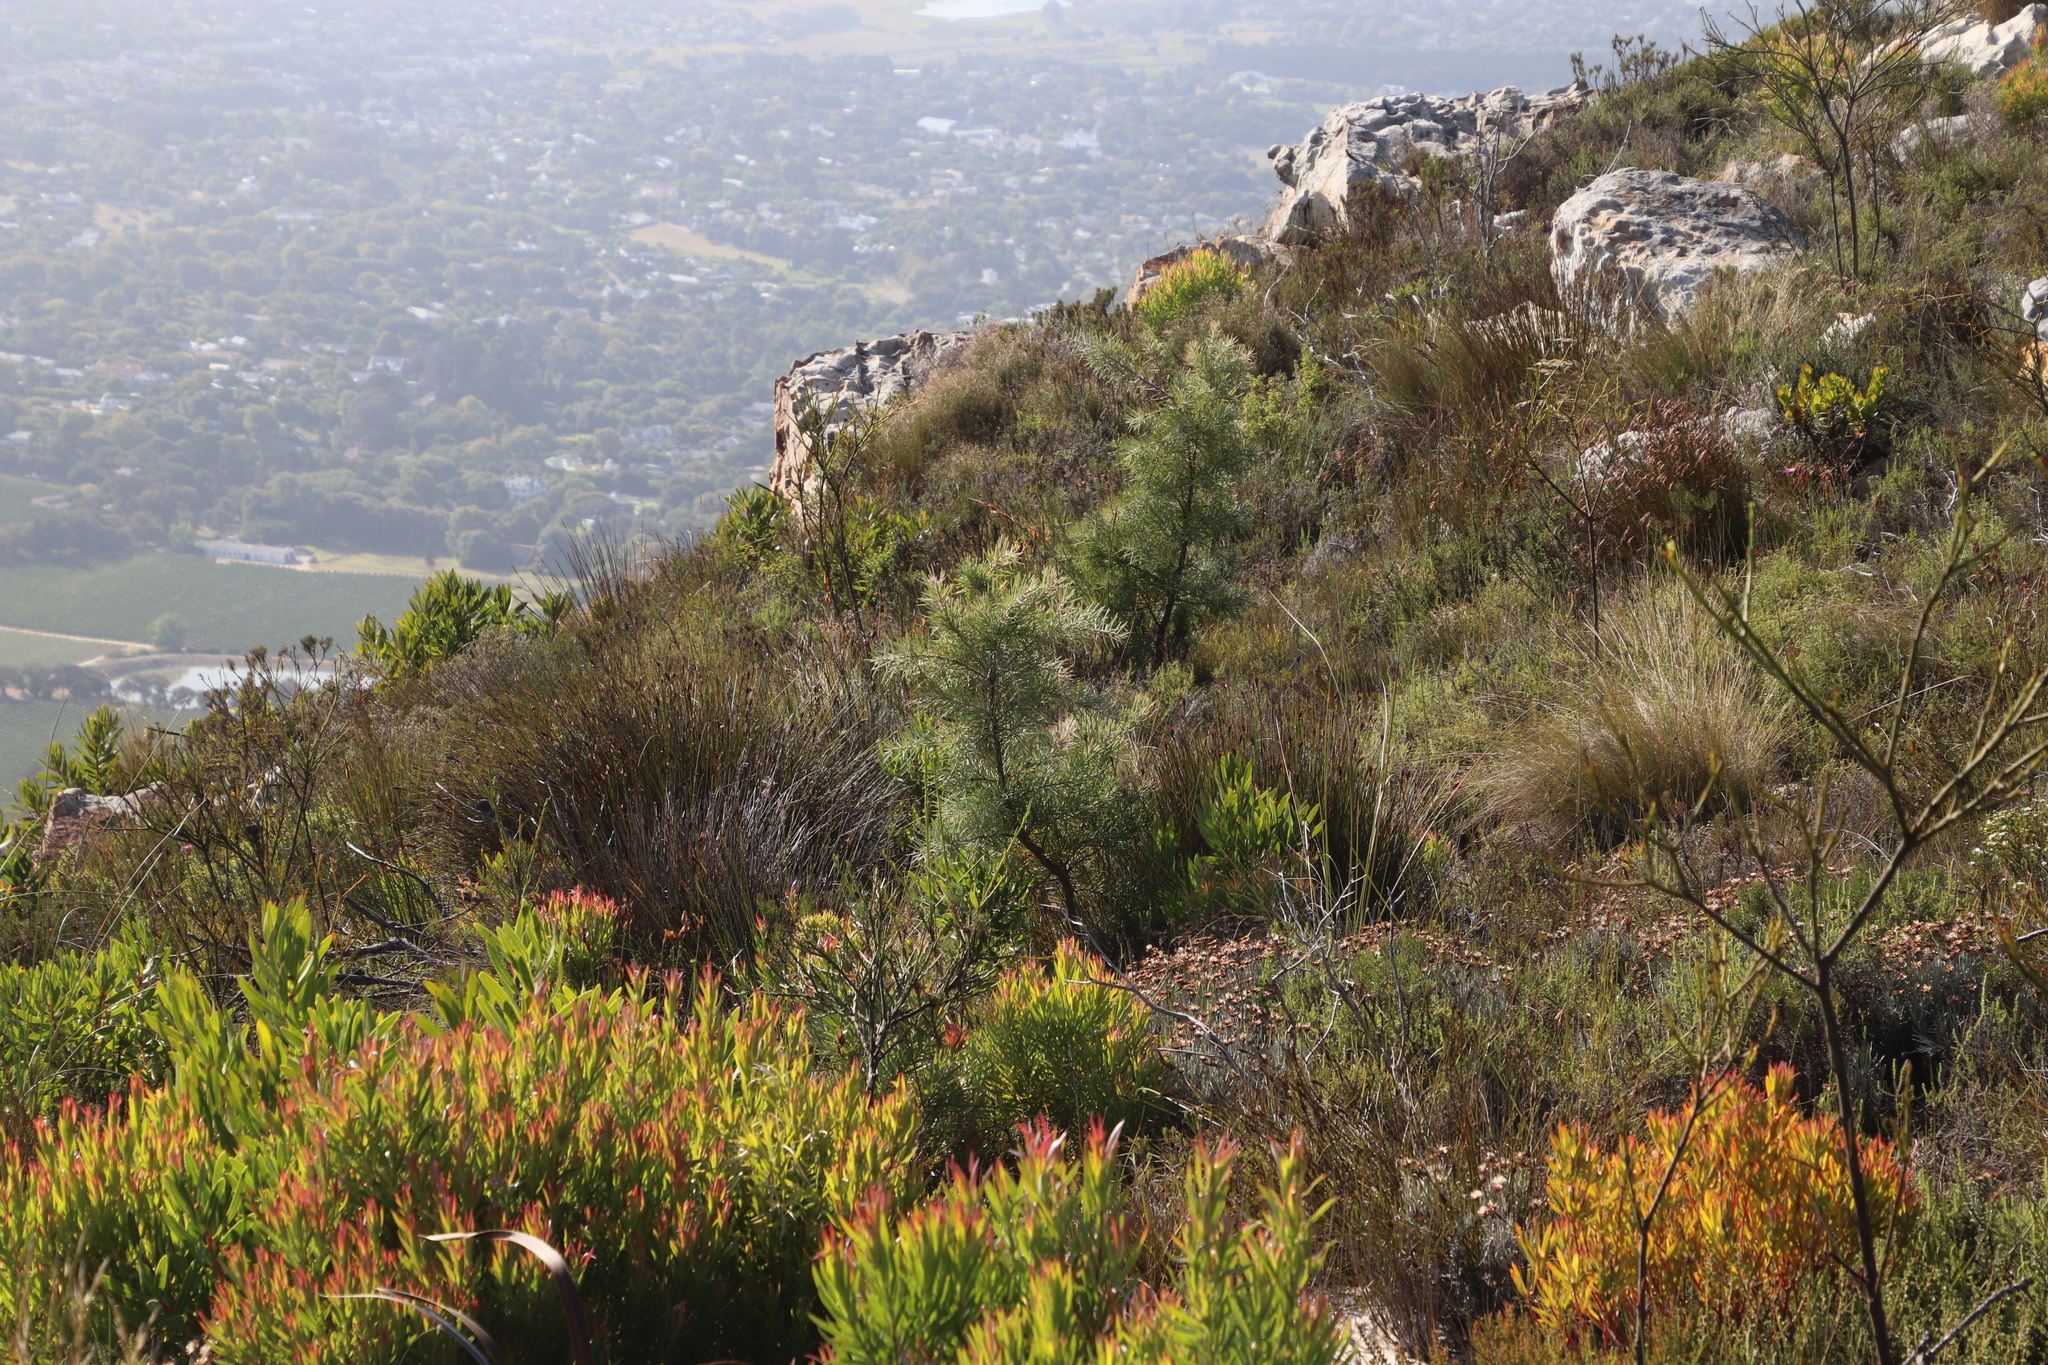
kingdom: Plantae
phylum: Tracheophyta
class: Magnoliopsida
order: Proteales
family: Proteaceae
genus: Hakea
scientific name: Hakea gibbosa
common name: Rock hakea
